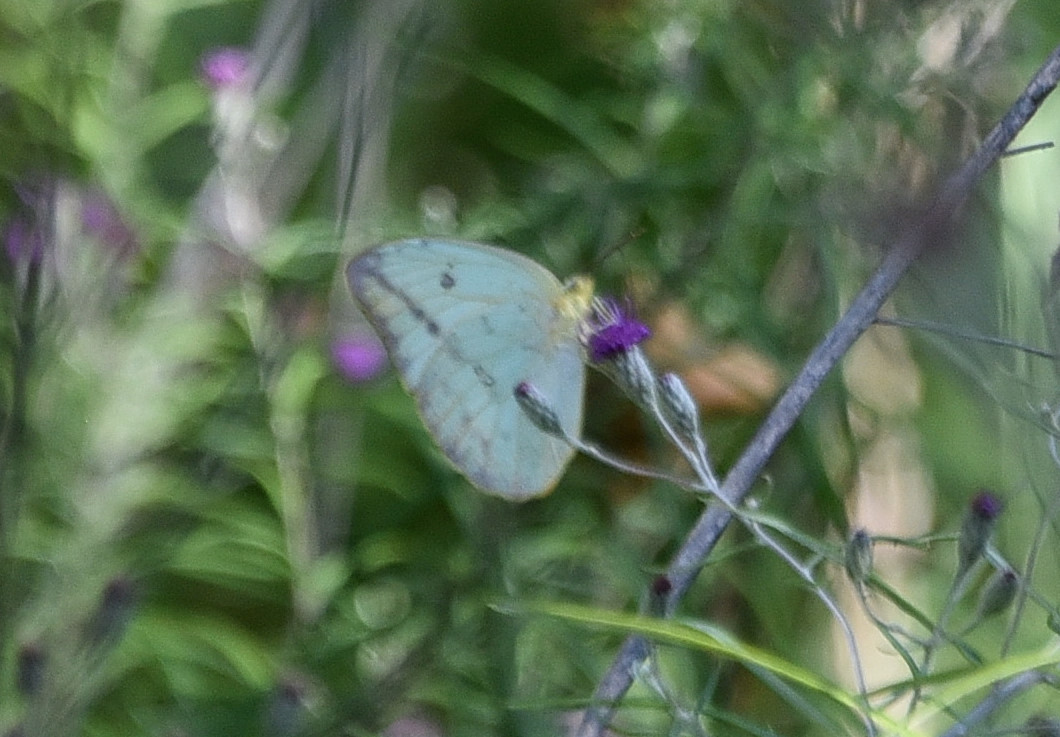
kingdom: Animalia
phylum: Arthropoda
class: Insecta
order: Lepidoptera
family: Pieridae
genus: Phoebis
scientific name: Phoebis agarithe
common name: Large orange sulphur
